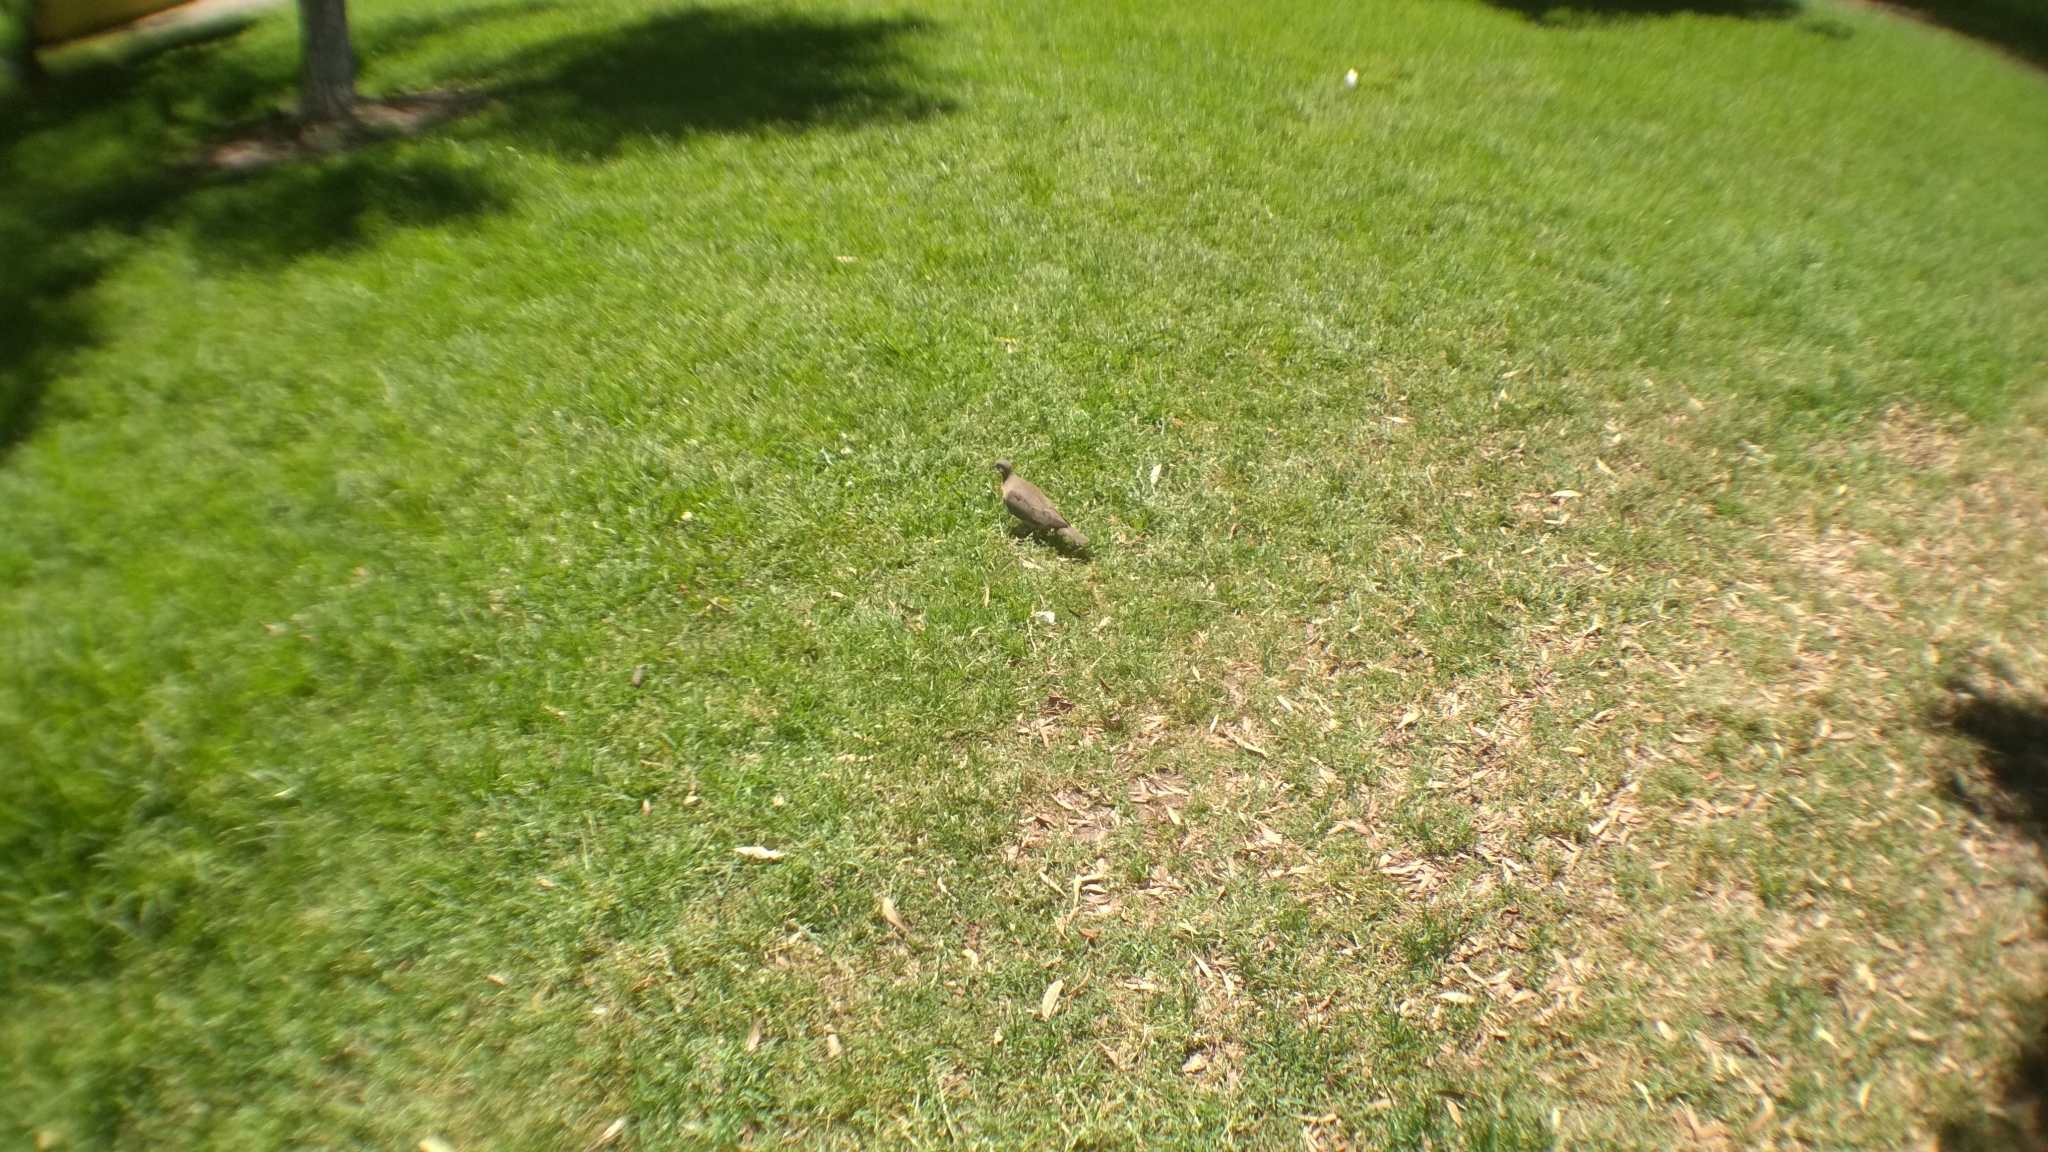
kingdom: Animalia
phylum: Chordata
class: Aves
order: Columbiformes
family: Columbidae
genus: Zenaida
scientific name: Zenaida auriculata
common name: Eared dove
